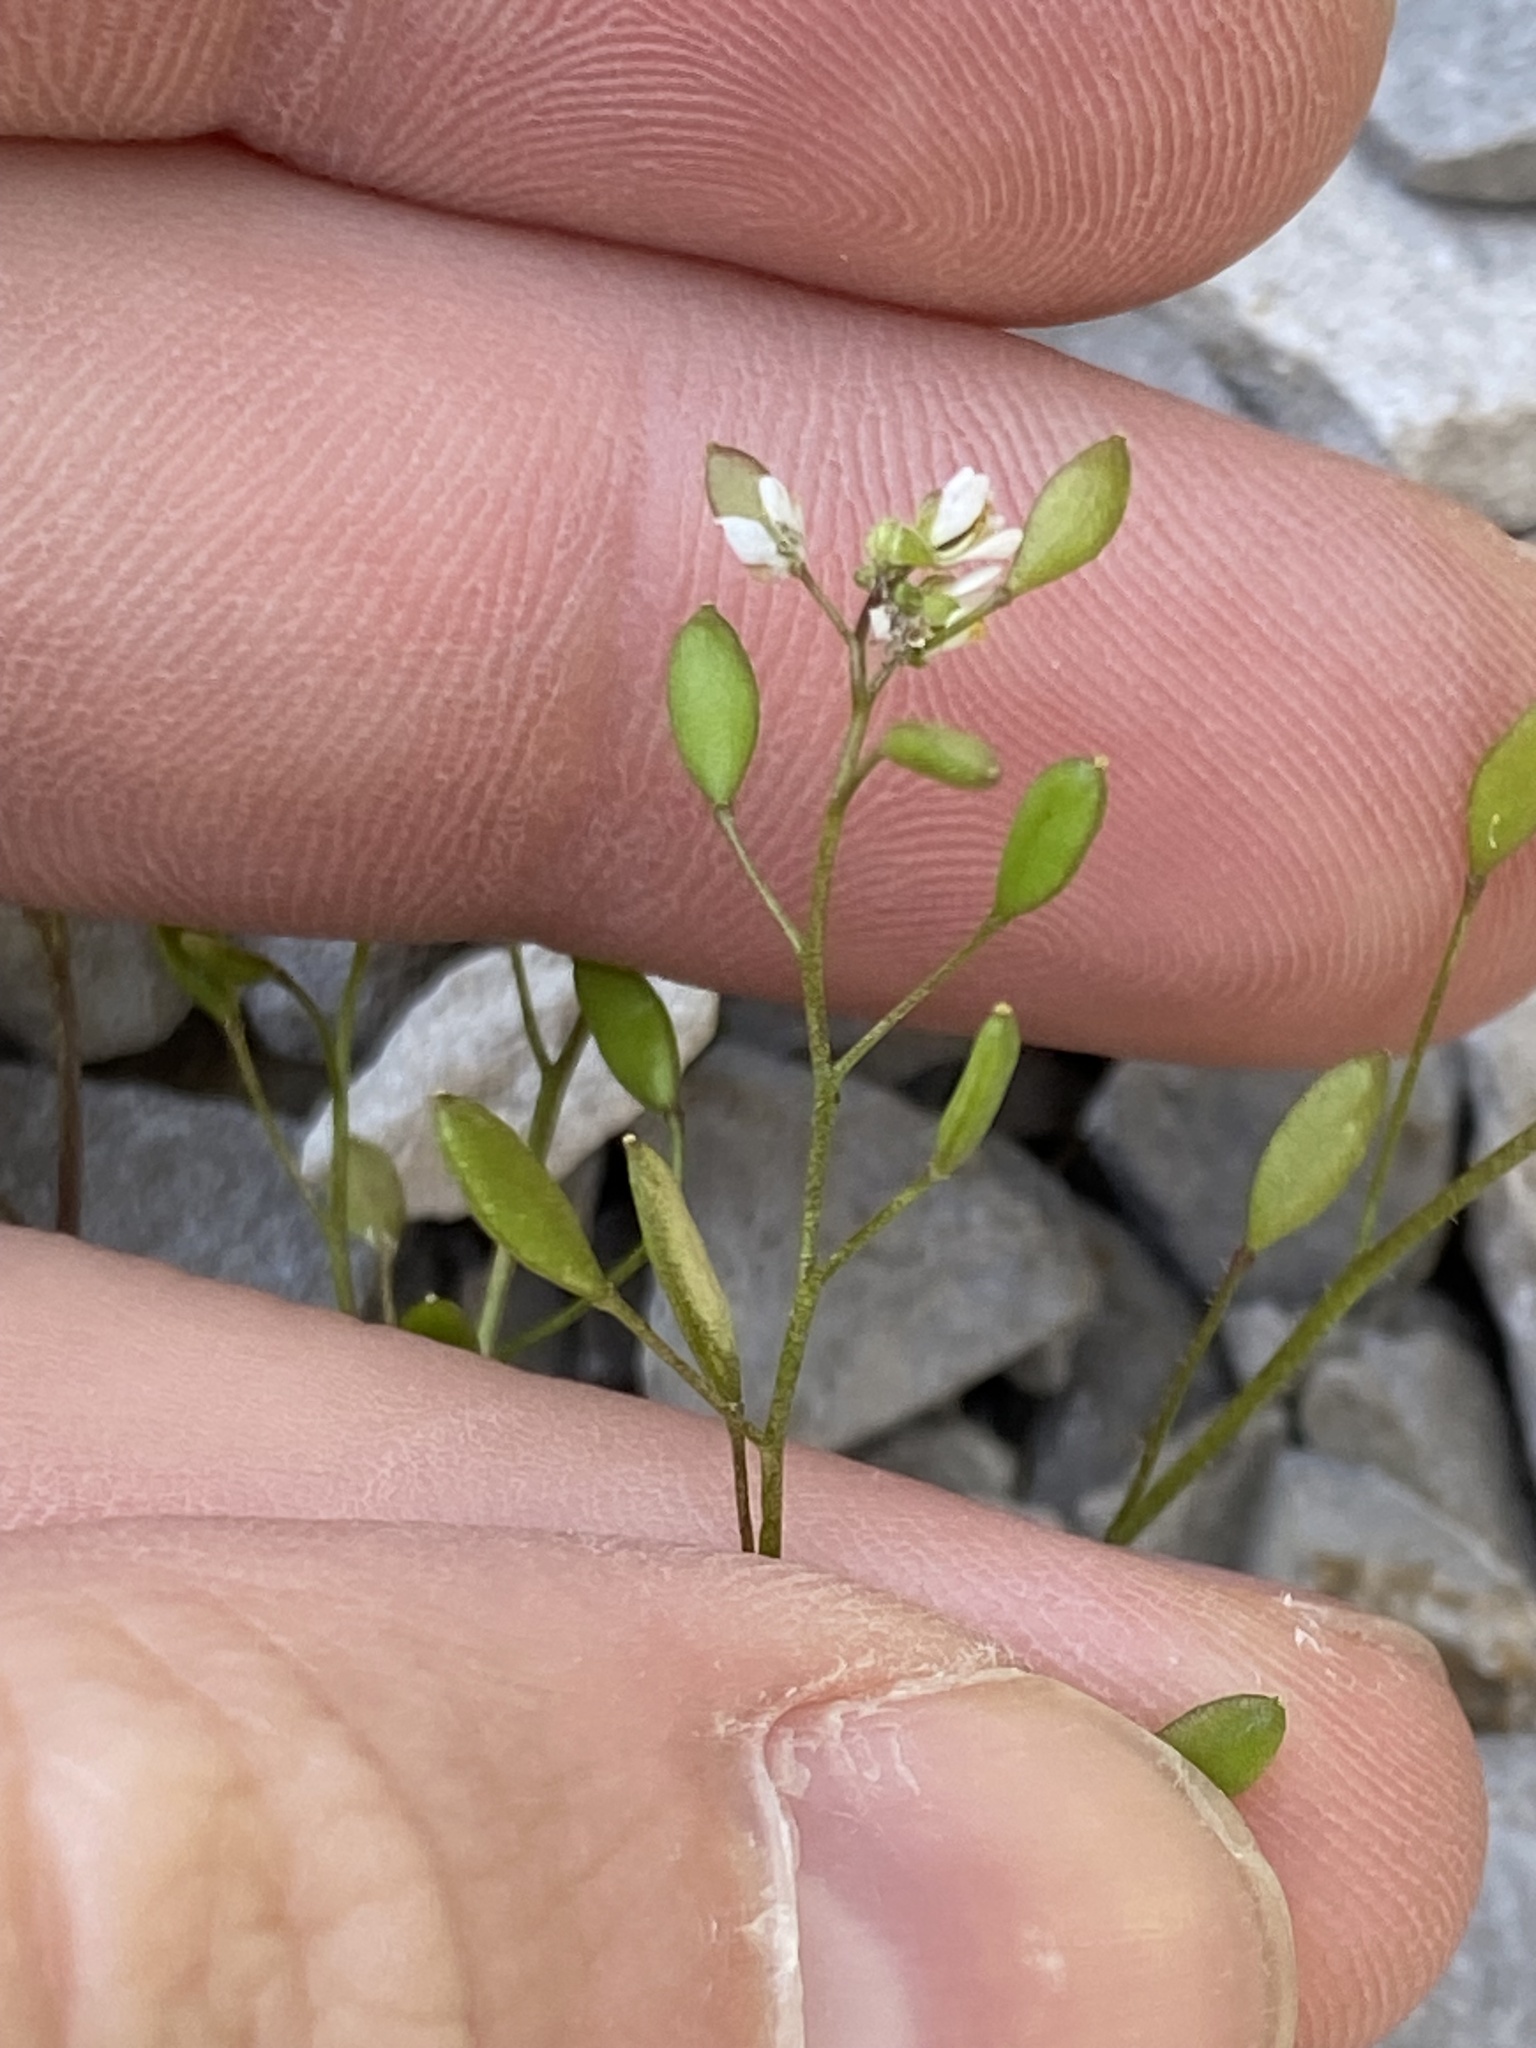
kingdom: Plantae
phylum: Tracheophyta
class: Magnoliopsida
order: Brassicales
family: Brassicaceae
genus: Draba
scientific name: Draba verna
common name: Spring draba
